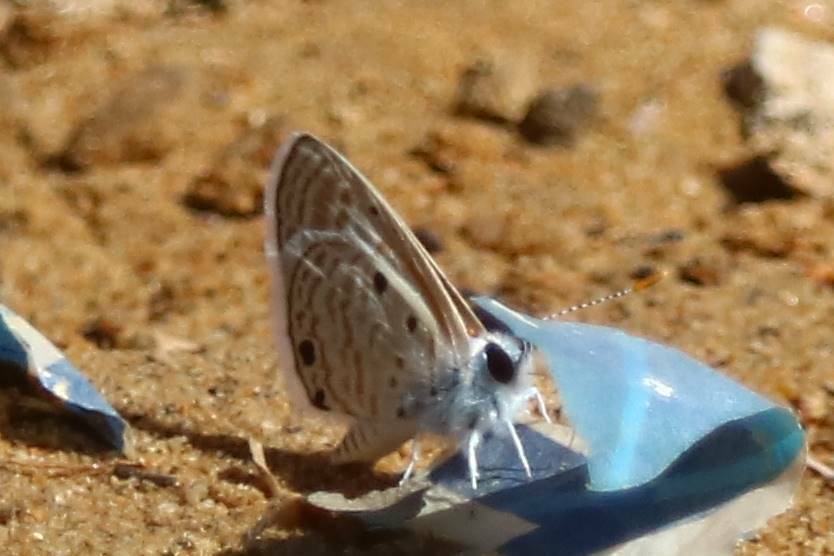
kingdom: Animalia
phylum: Arthropoda
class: Insecta
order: Lepidoptera
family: Lycaenidae
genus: Azanus
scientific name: Azanus ubaldus
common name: Desert babul blue
